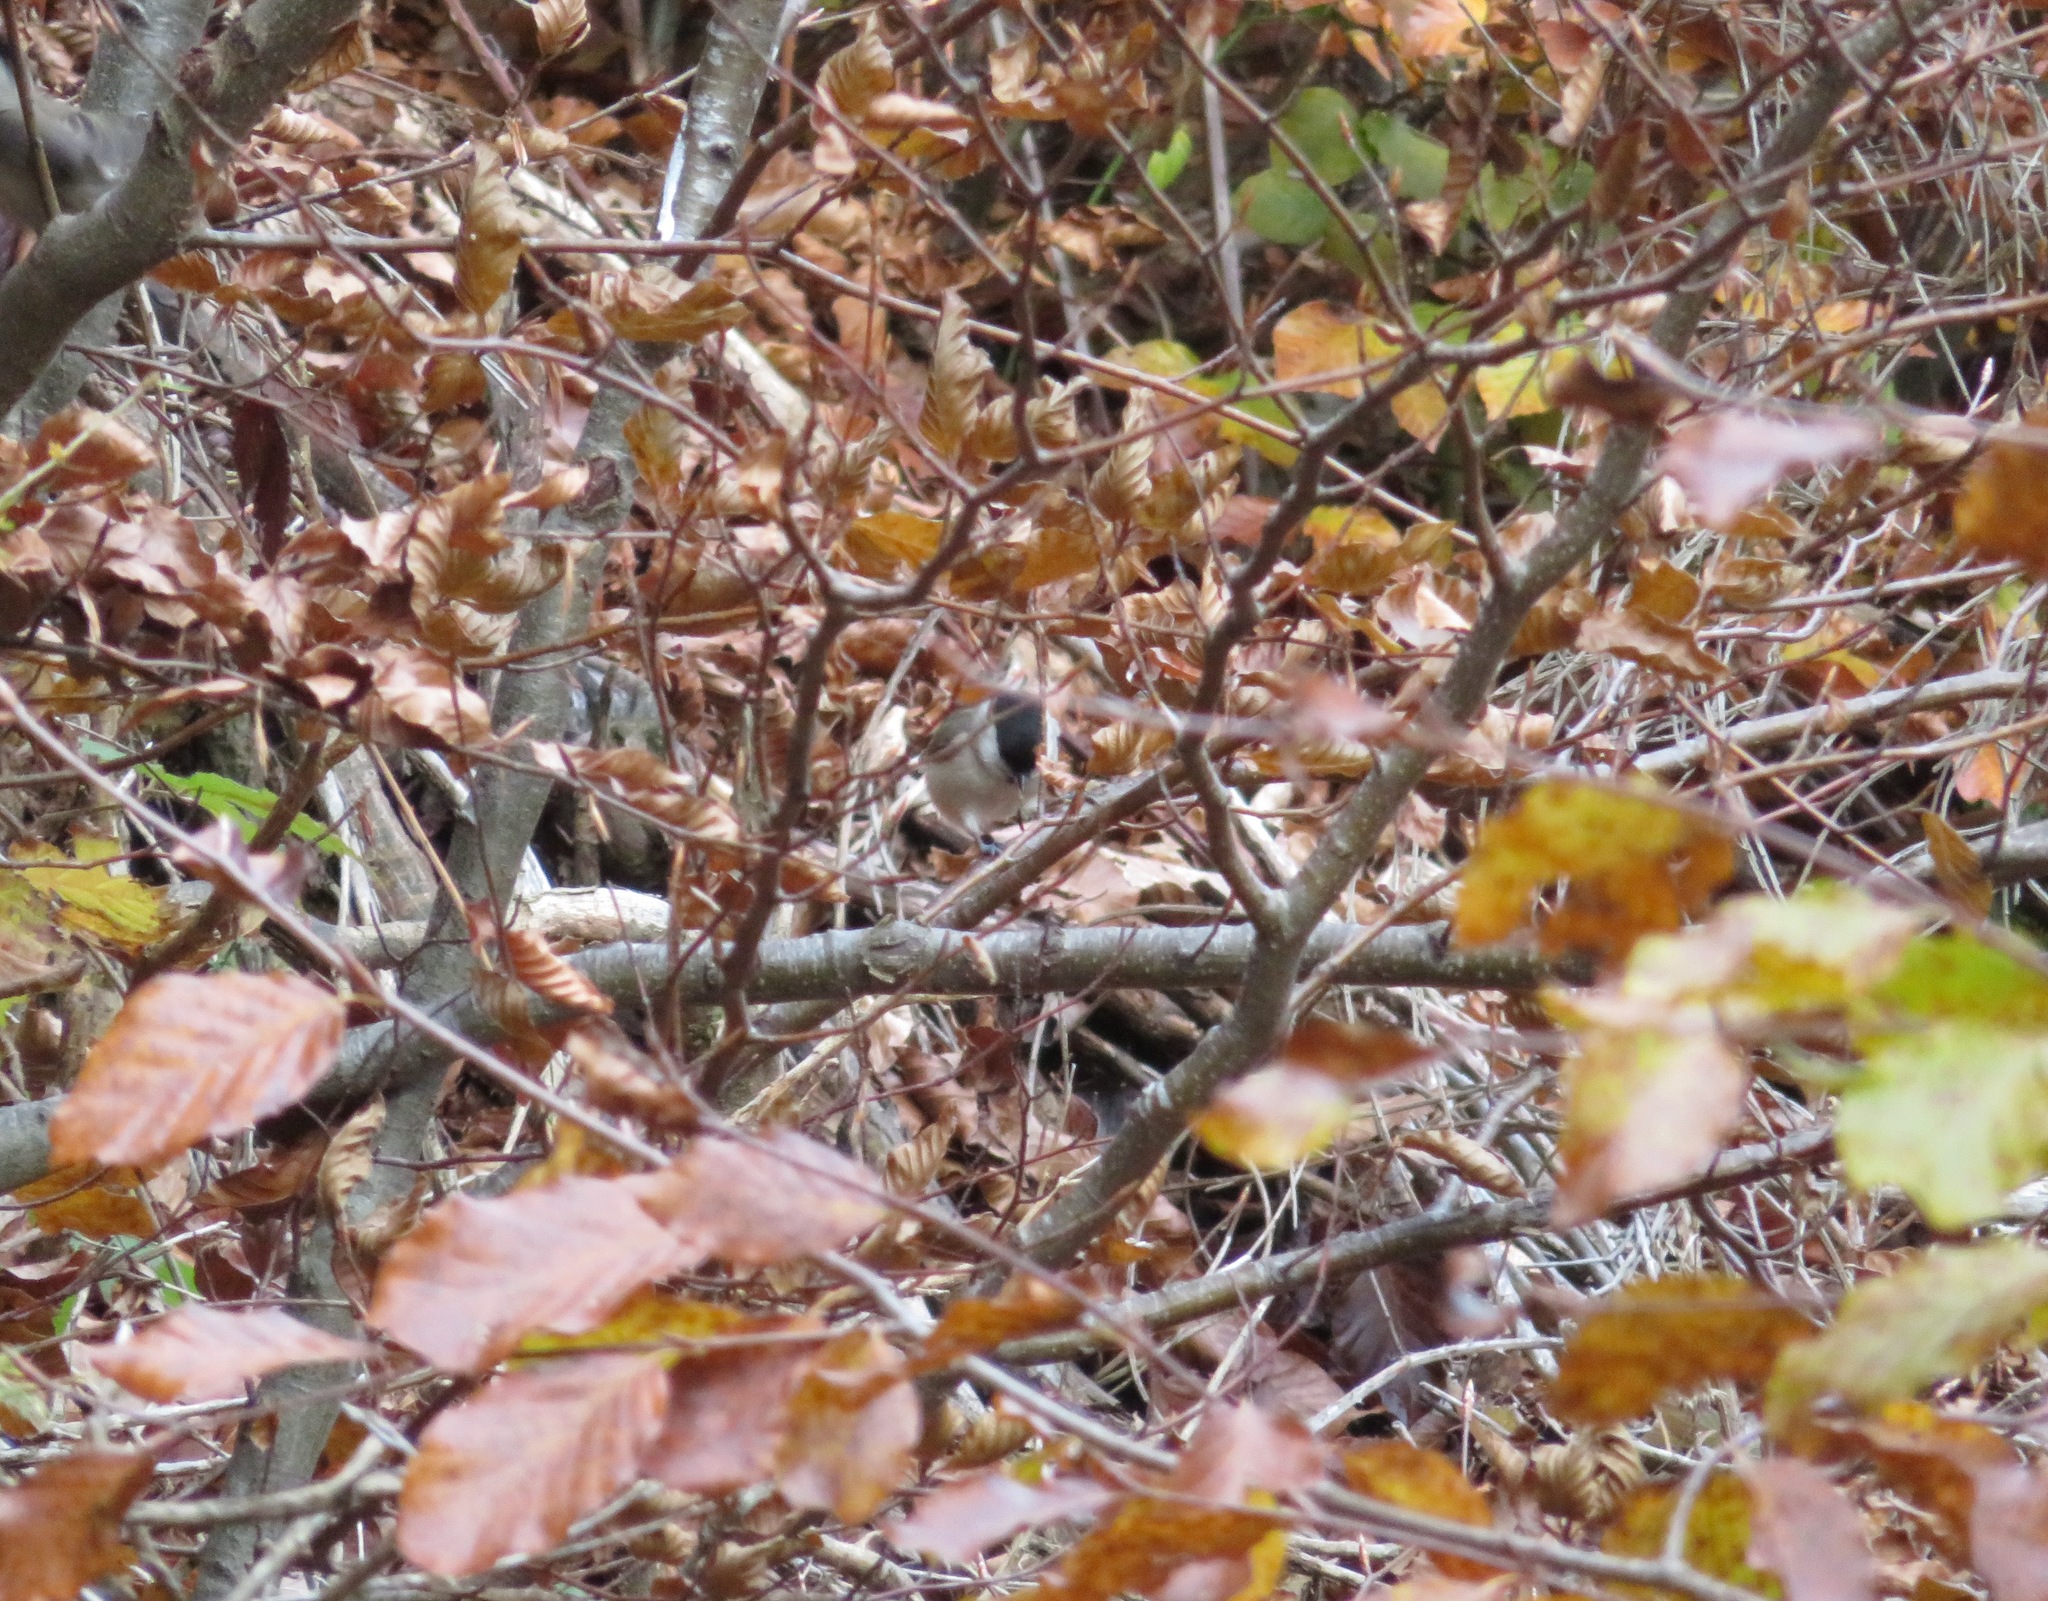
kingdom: Animalia
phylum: Chordata
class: Aves
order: Passeriformes
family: Paridae
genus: Poecile
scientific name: Poecile palustris
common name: Marsh tit
